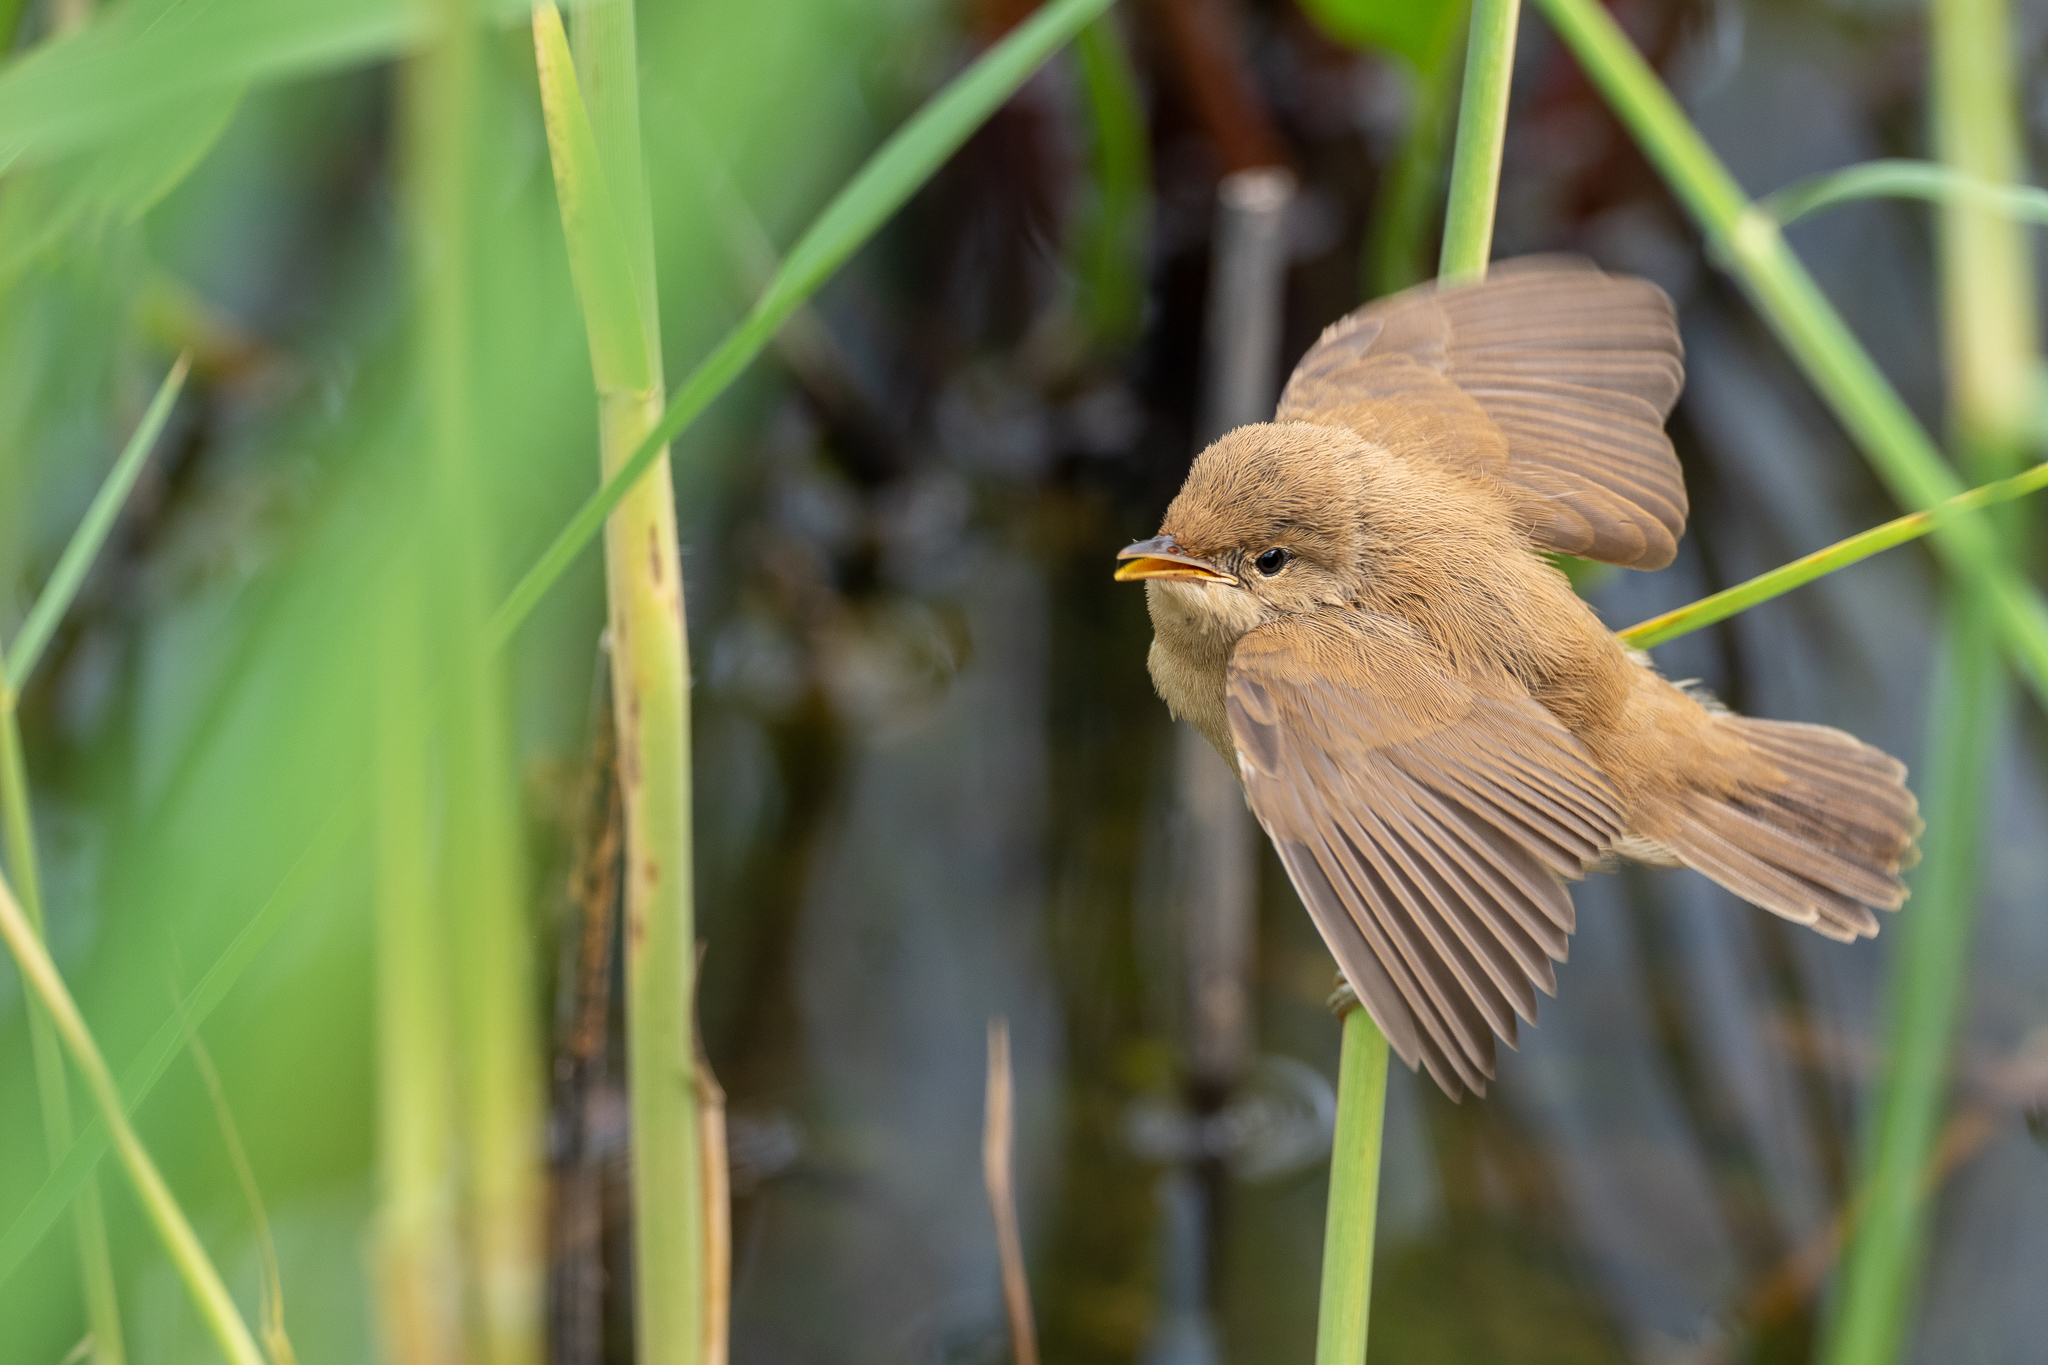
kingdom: Animalia
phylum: Chordata
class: Aves
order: Passeriformes
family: Acrocephalidae
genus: Acrocephalus
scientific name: Acrocephalus scirpaceus
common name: Eurasian reed warbler
